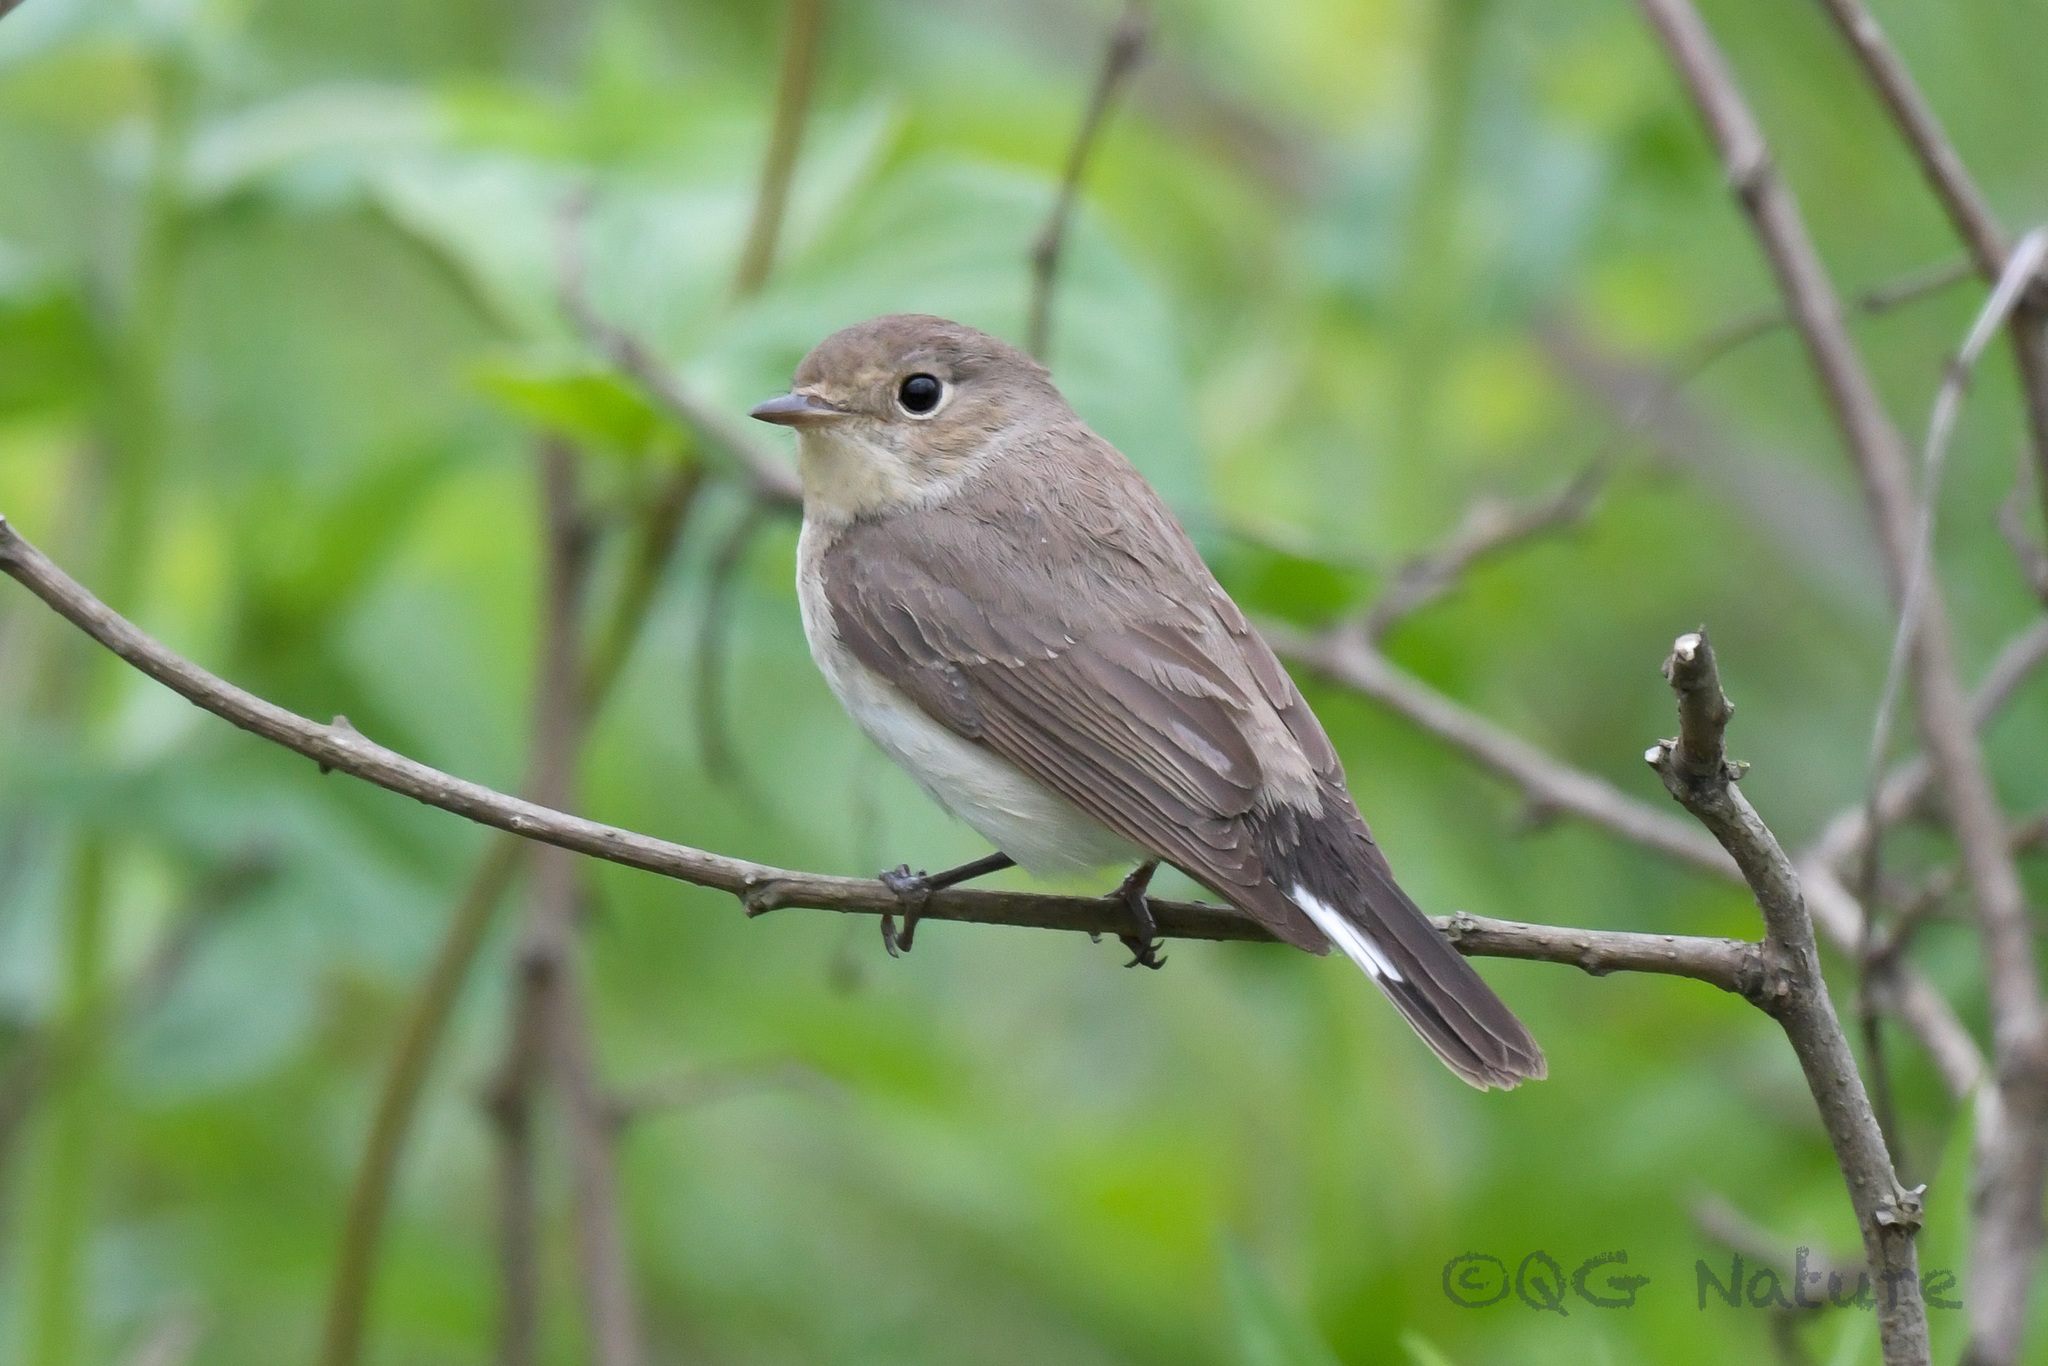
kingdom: Animalia
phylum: Chordata
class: Aves
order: Passeriformes
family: Muscicapidae
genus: Ficedula
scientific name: Ficedula albicilla
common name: Taiga flycatcher
